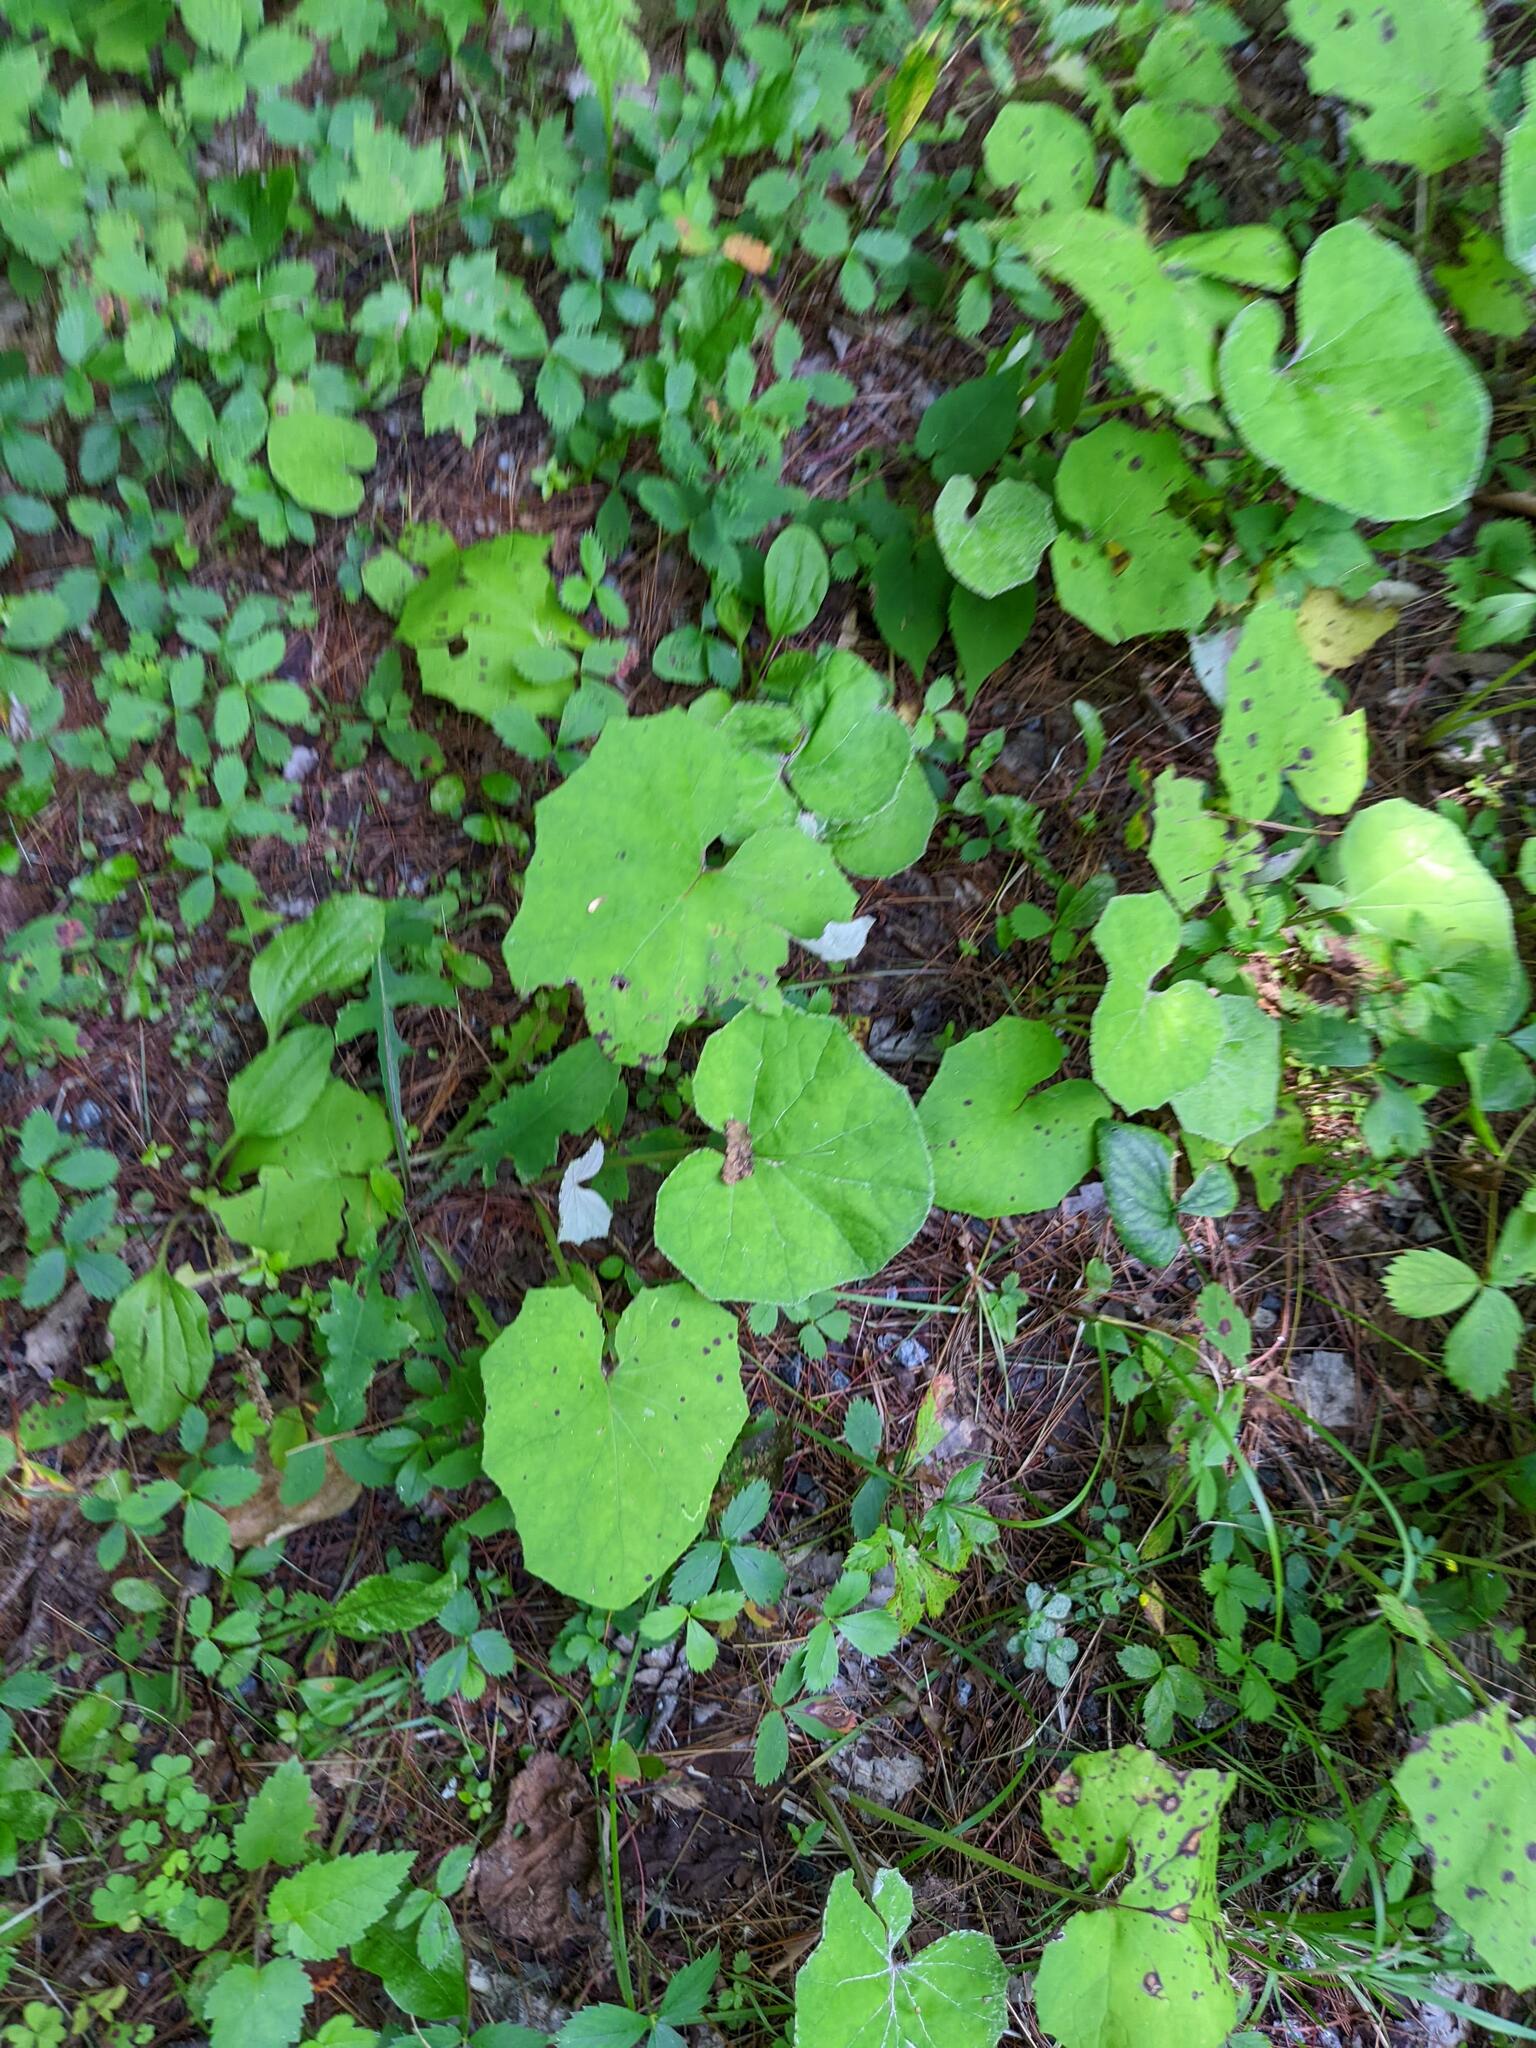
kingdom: Plantae
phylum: Tracheophyta
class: Magnoliopsida
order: Asterales
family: Asteraceae
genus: Tussilago
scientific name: Tussilago farfara
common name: Coltsfoot
